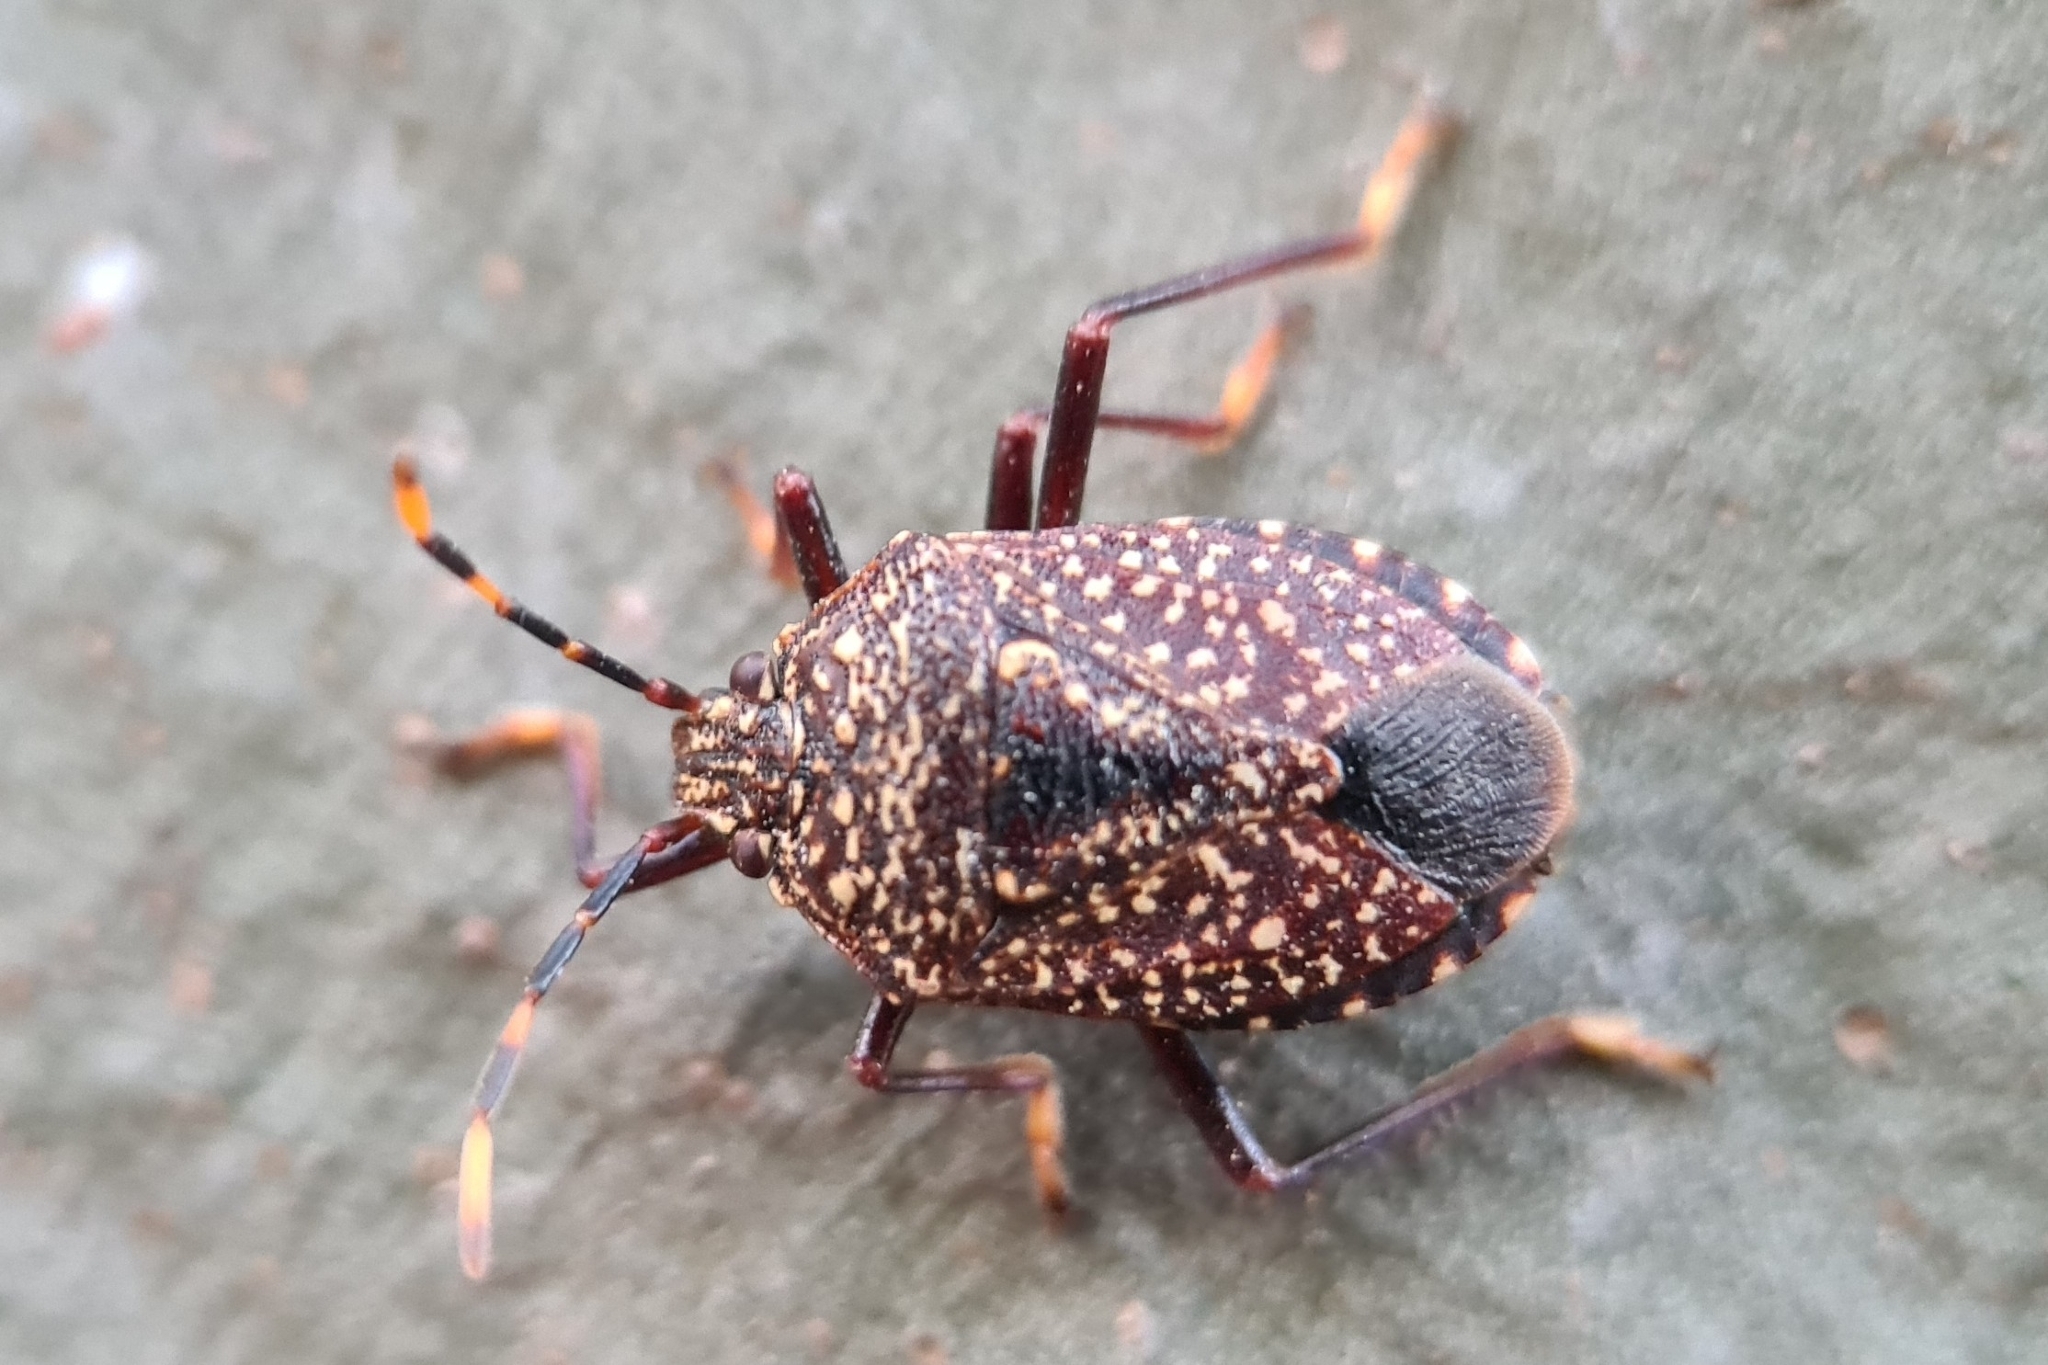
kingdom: Animalia
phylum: Arthropoda
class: Insecta
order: Hemiptera
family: Pentatomidae
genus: Notius
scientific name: Notius
